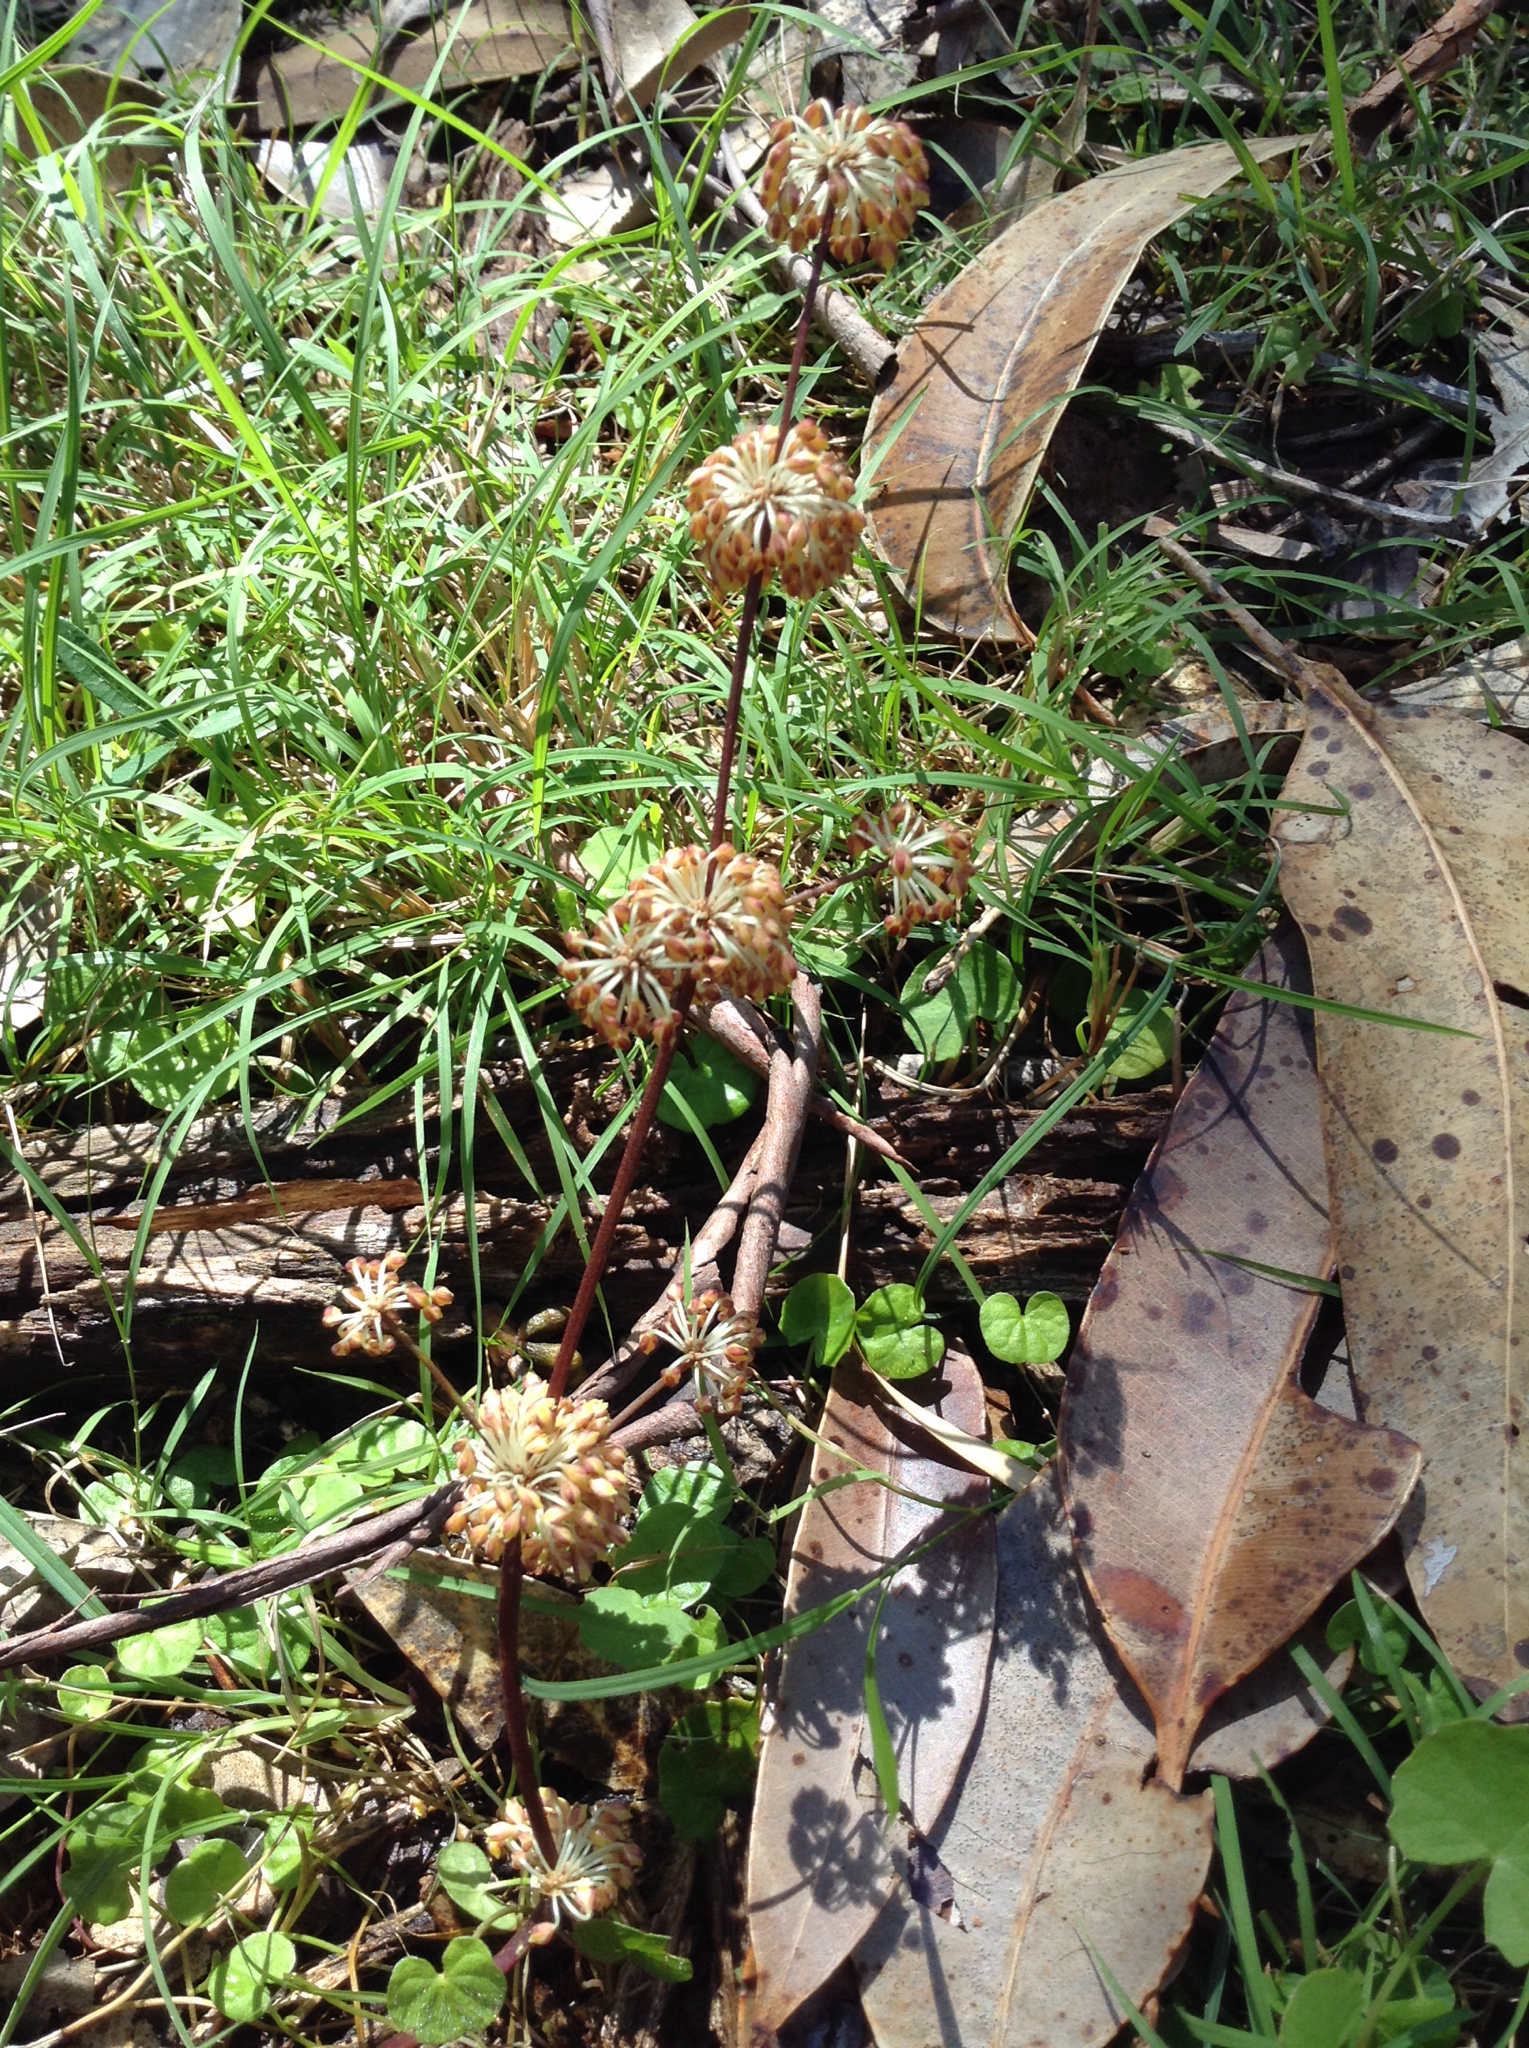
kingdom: Plantae
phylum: Tracheophyta
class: Liliopsida
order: Asparagales
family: Asparagaceae
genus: Lomandra
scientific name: Lomandra multiflora
